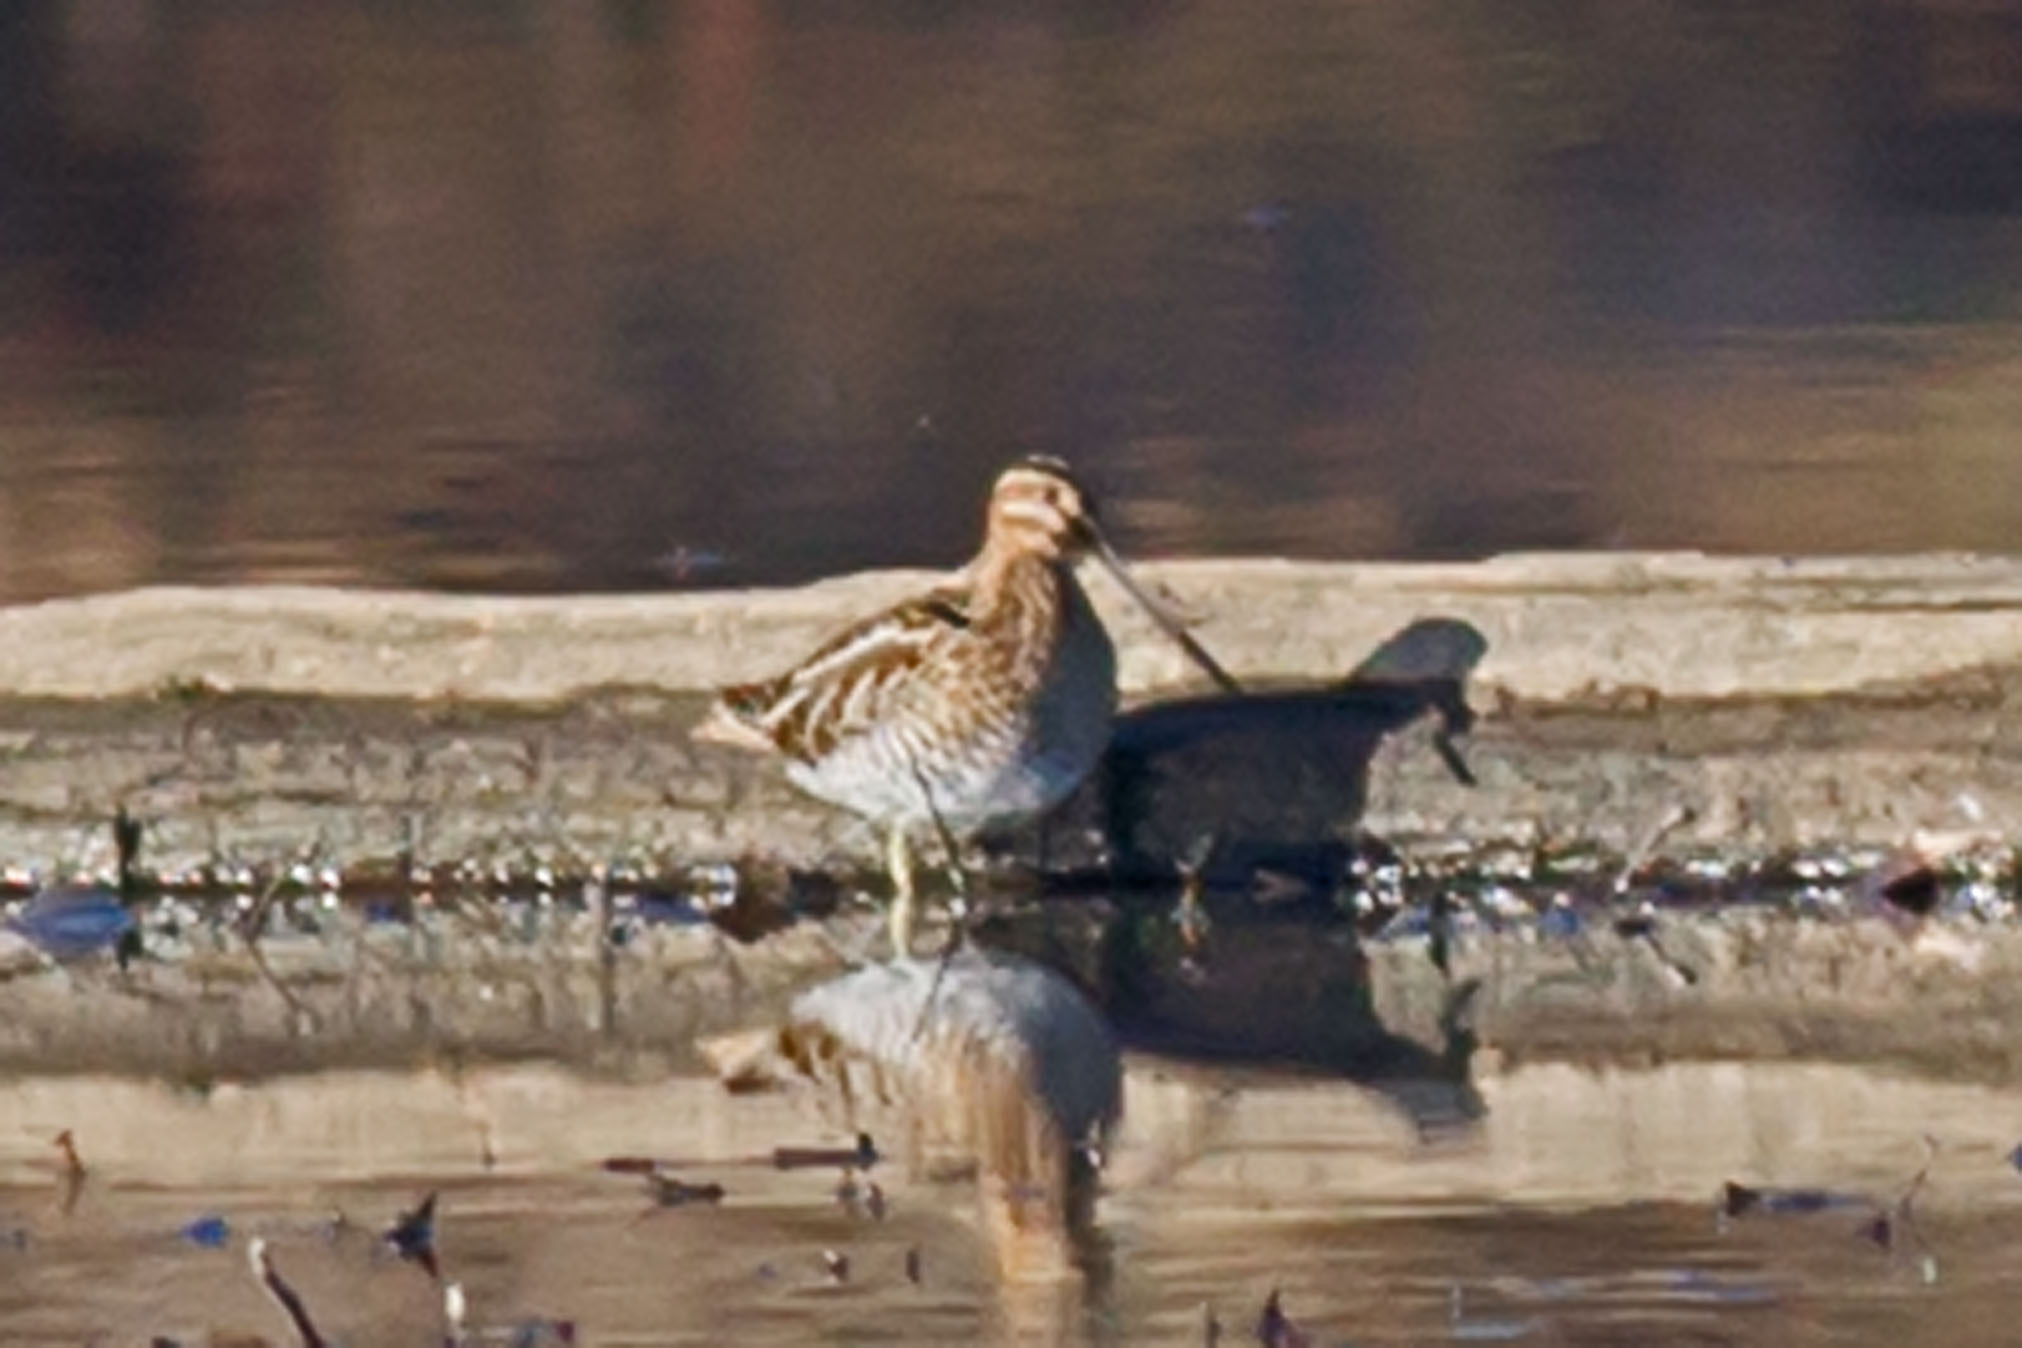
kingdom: Animalia
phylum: Chordata
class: Aves
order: Charadriiformes
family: Scolopacidae
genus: Gallinago
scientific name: Gallinago delicata
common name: Wilson's snipe
